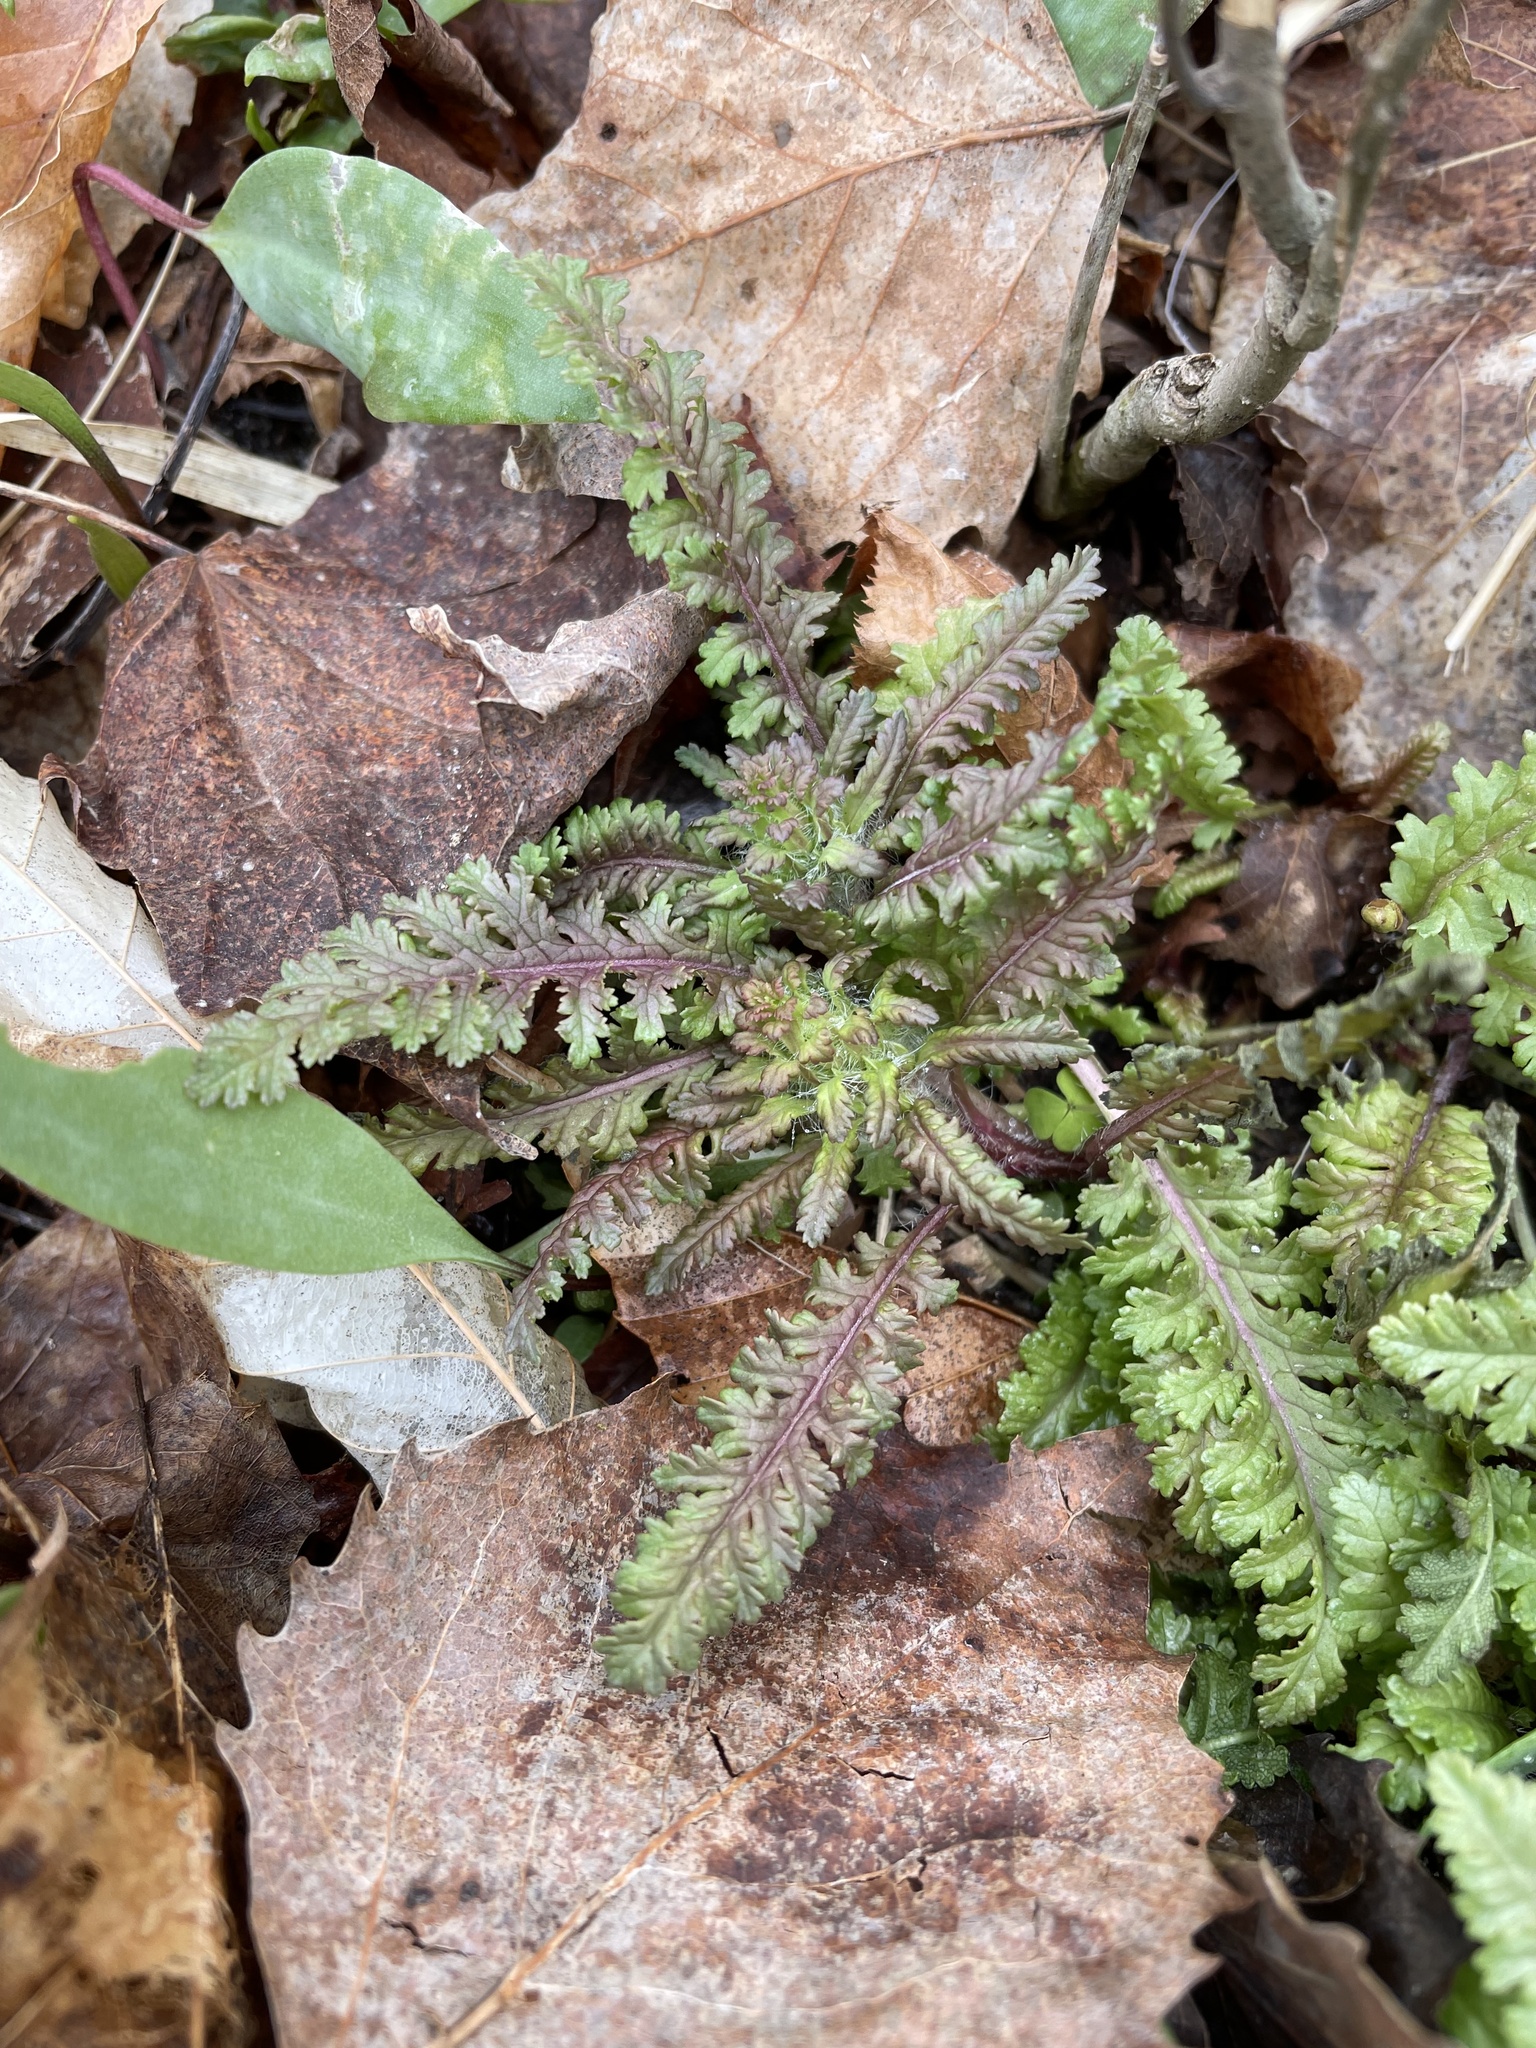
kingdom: Plantae
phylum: Tracheophyta
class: Magnoliopsida
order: Lamiales
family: Orobanchaceae
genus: Pedicularis
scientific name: Pedicularis canadensis
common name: Early lousewort
